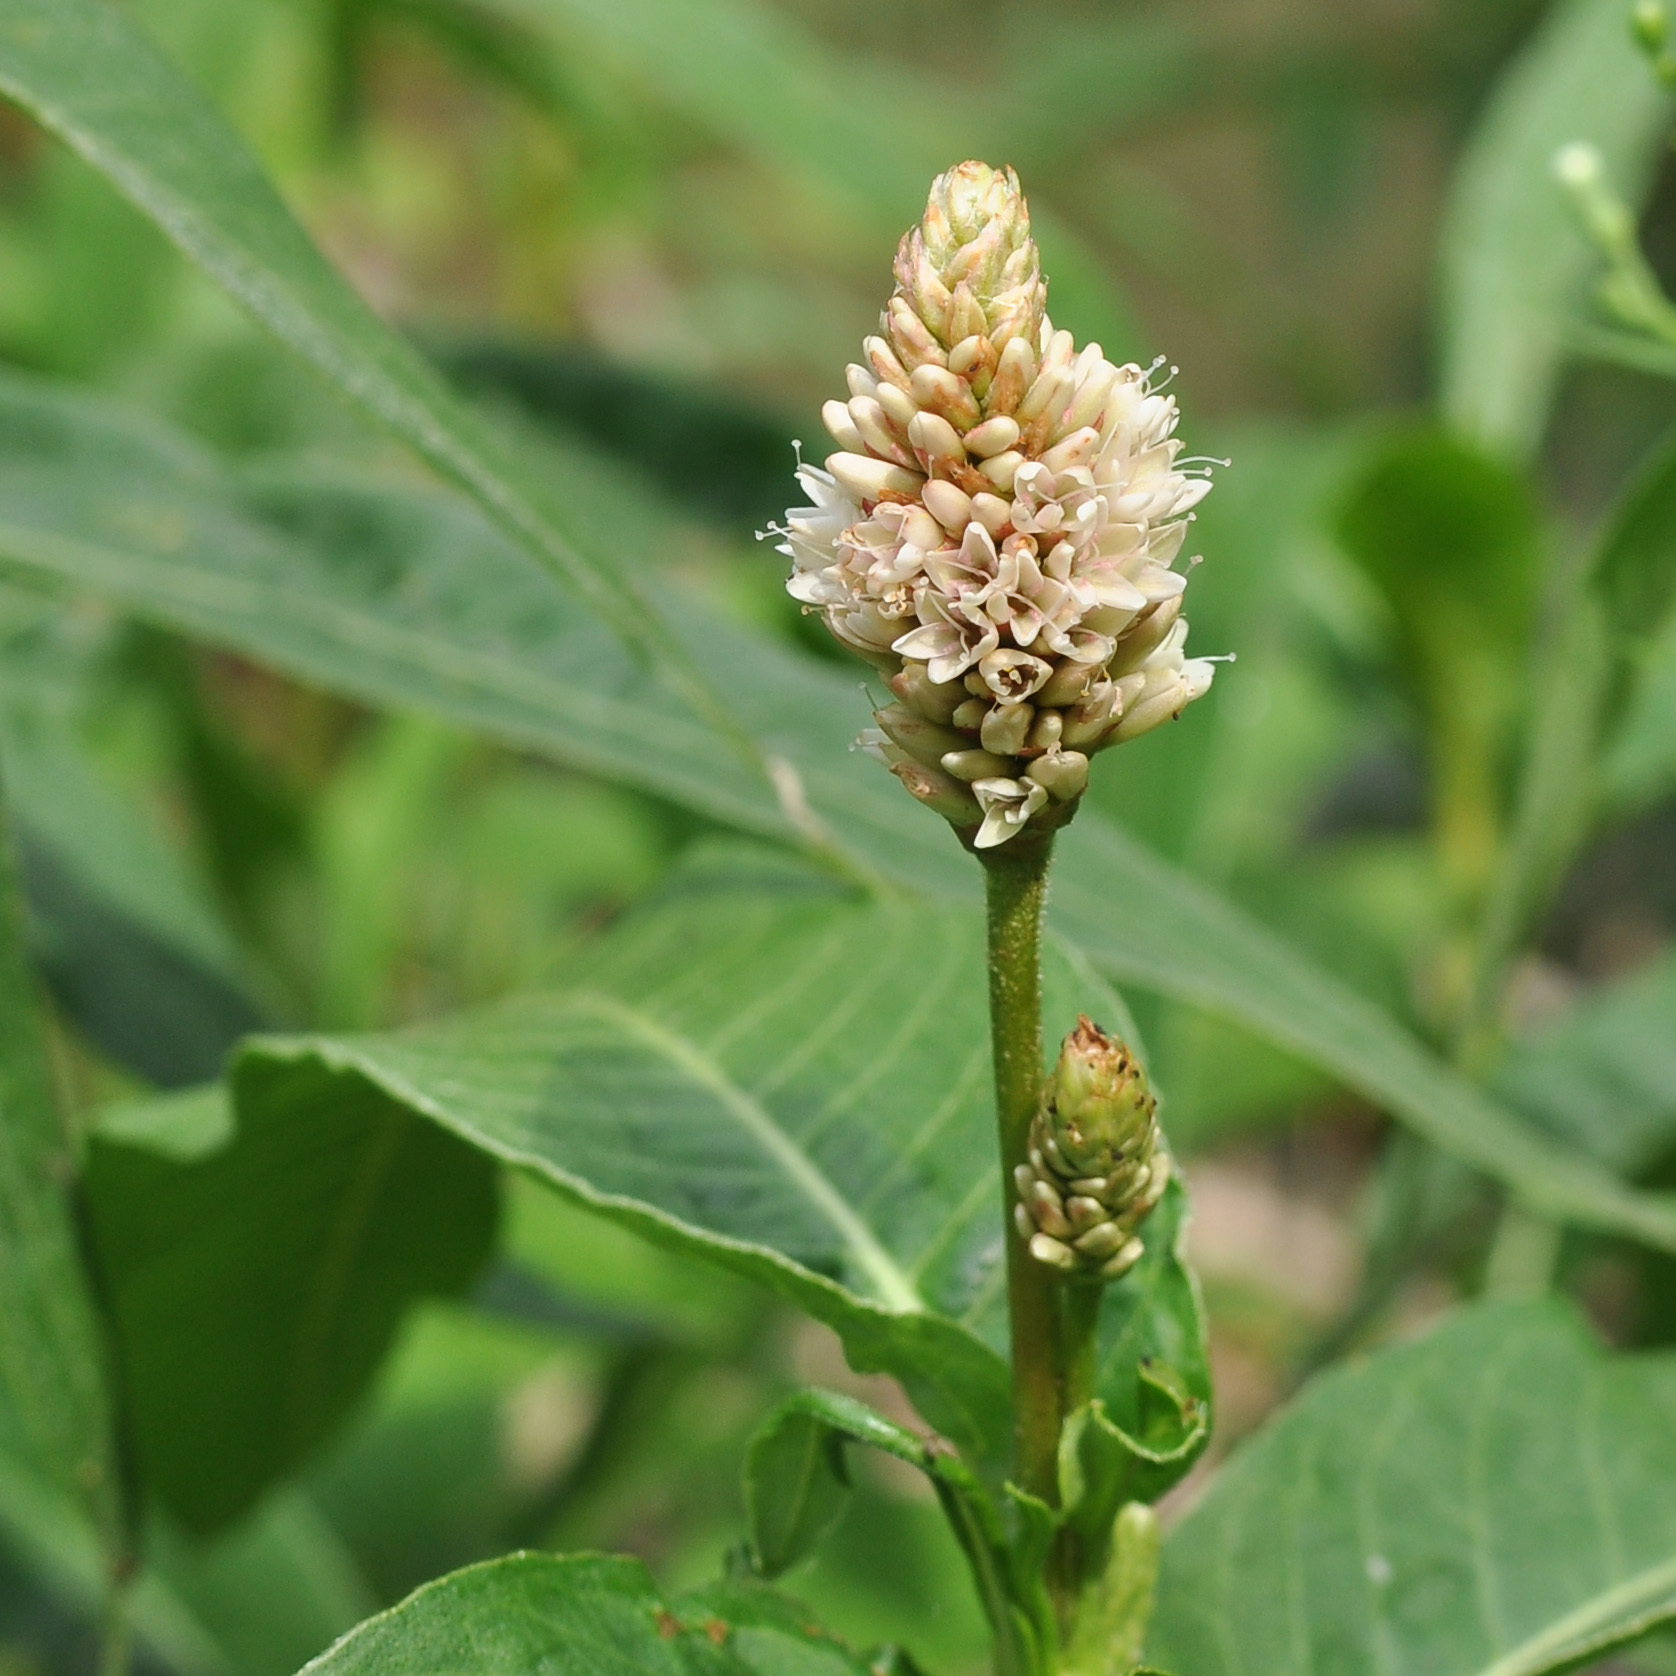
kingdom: Plantae
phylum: Tracheophyta
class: Magnoliopsida
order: Caryophyllales
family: Polygonaceae
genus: Persicaria
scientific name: Persicaria amphibia
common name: Amphibious bistort
